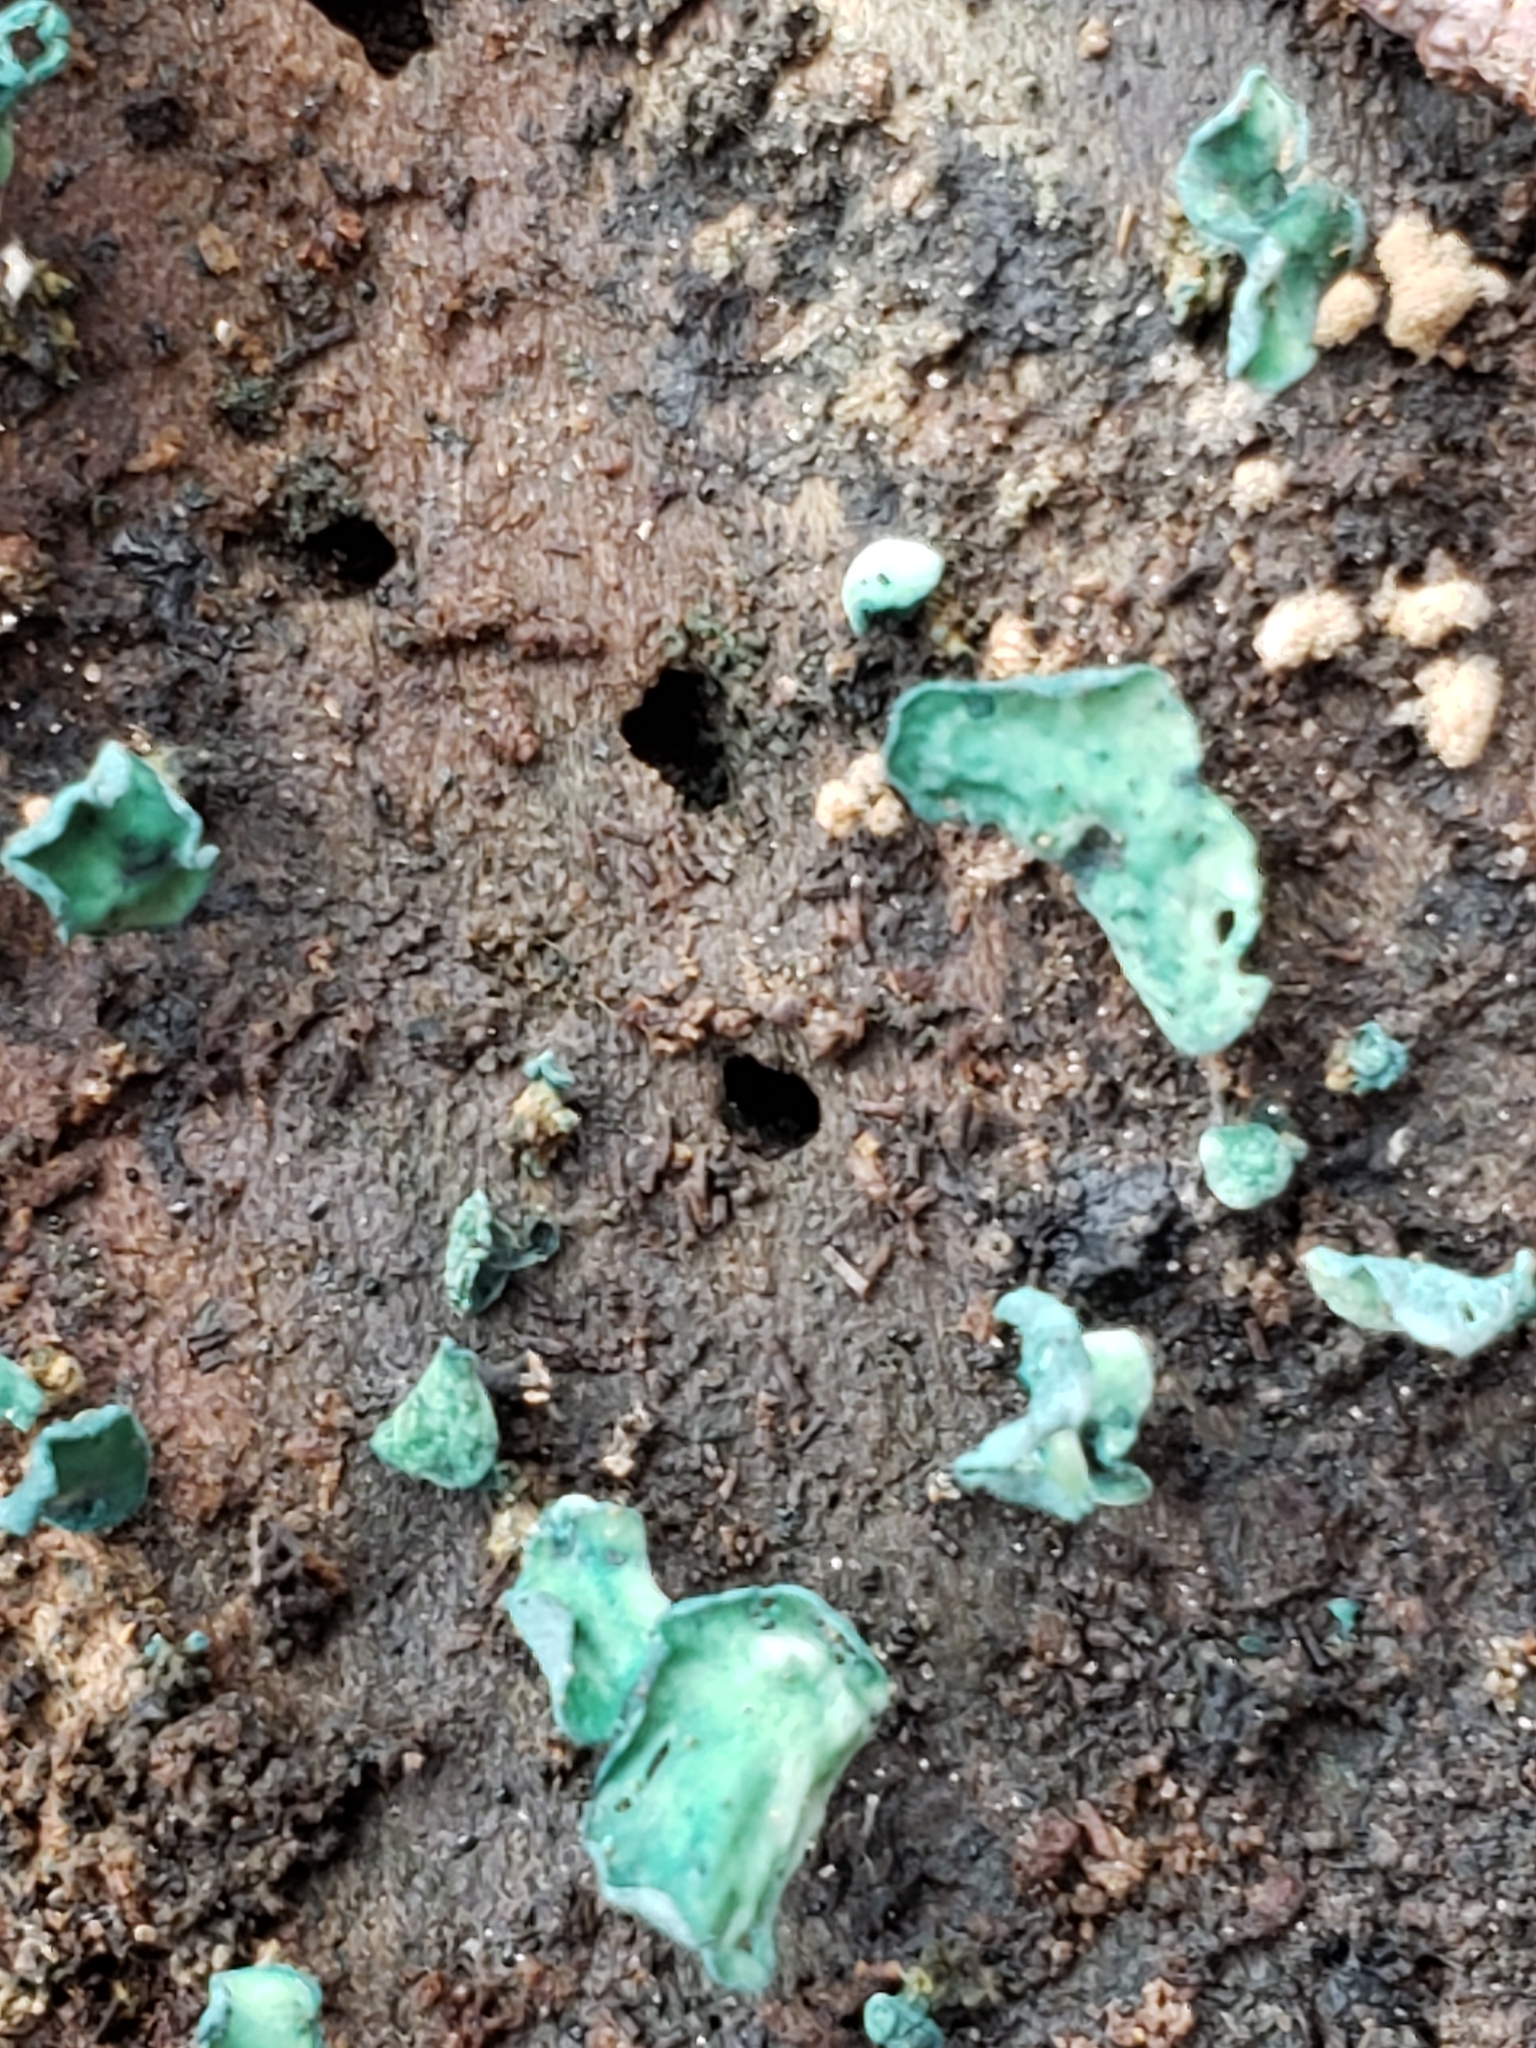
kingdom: Fungi
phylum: Ascomycota
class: Leotiomycetes
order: Helotiales
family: Chlorociboriaceae
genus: Chlorociboria
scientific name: Chlorociboria aeruginascens
